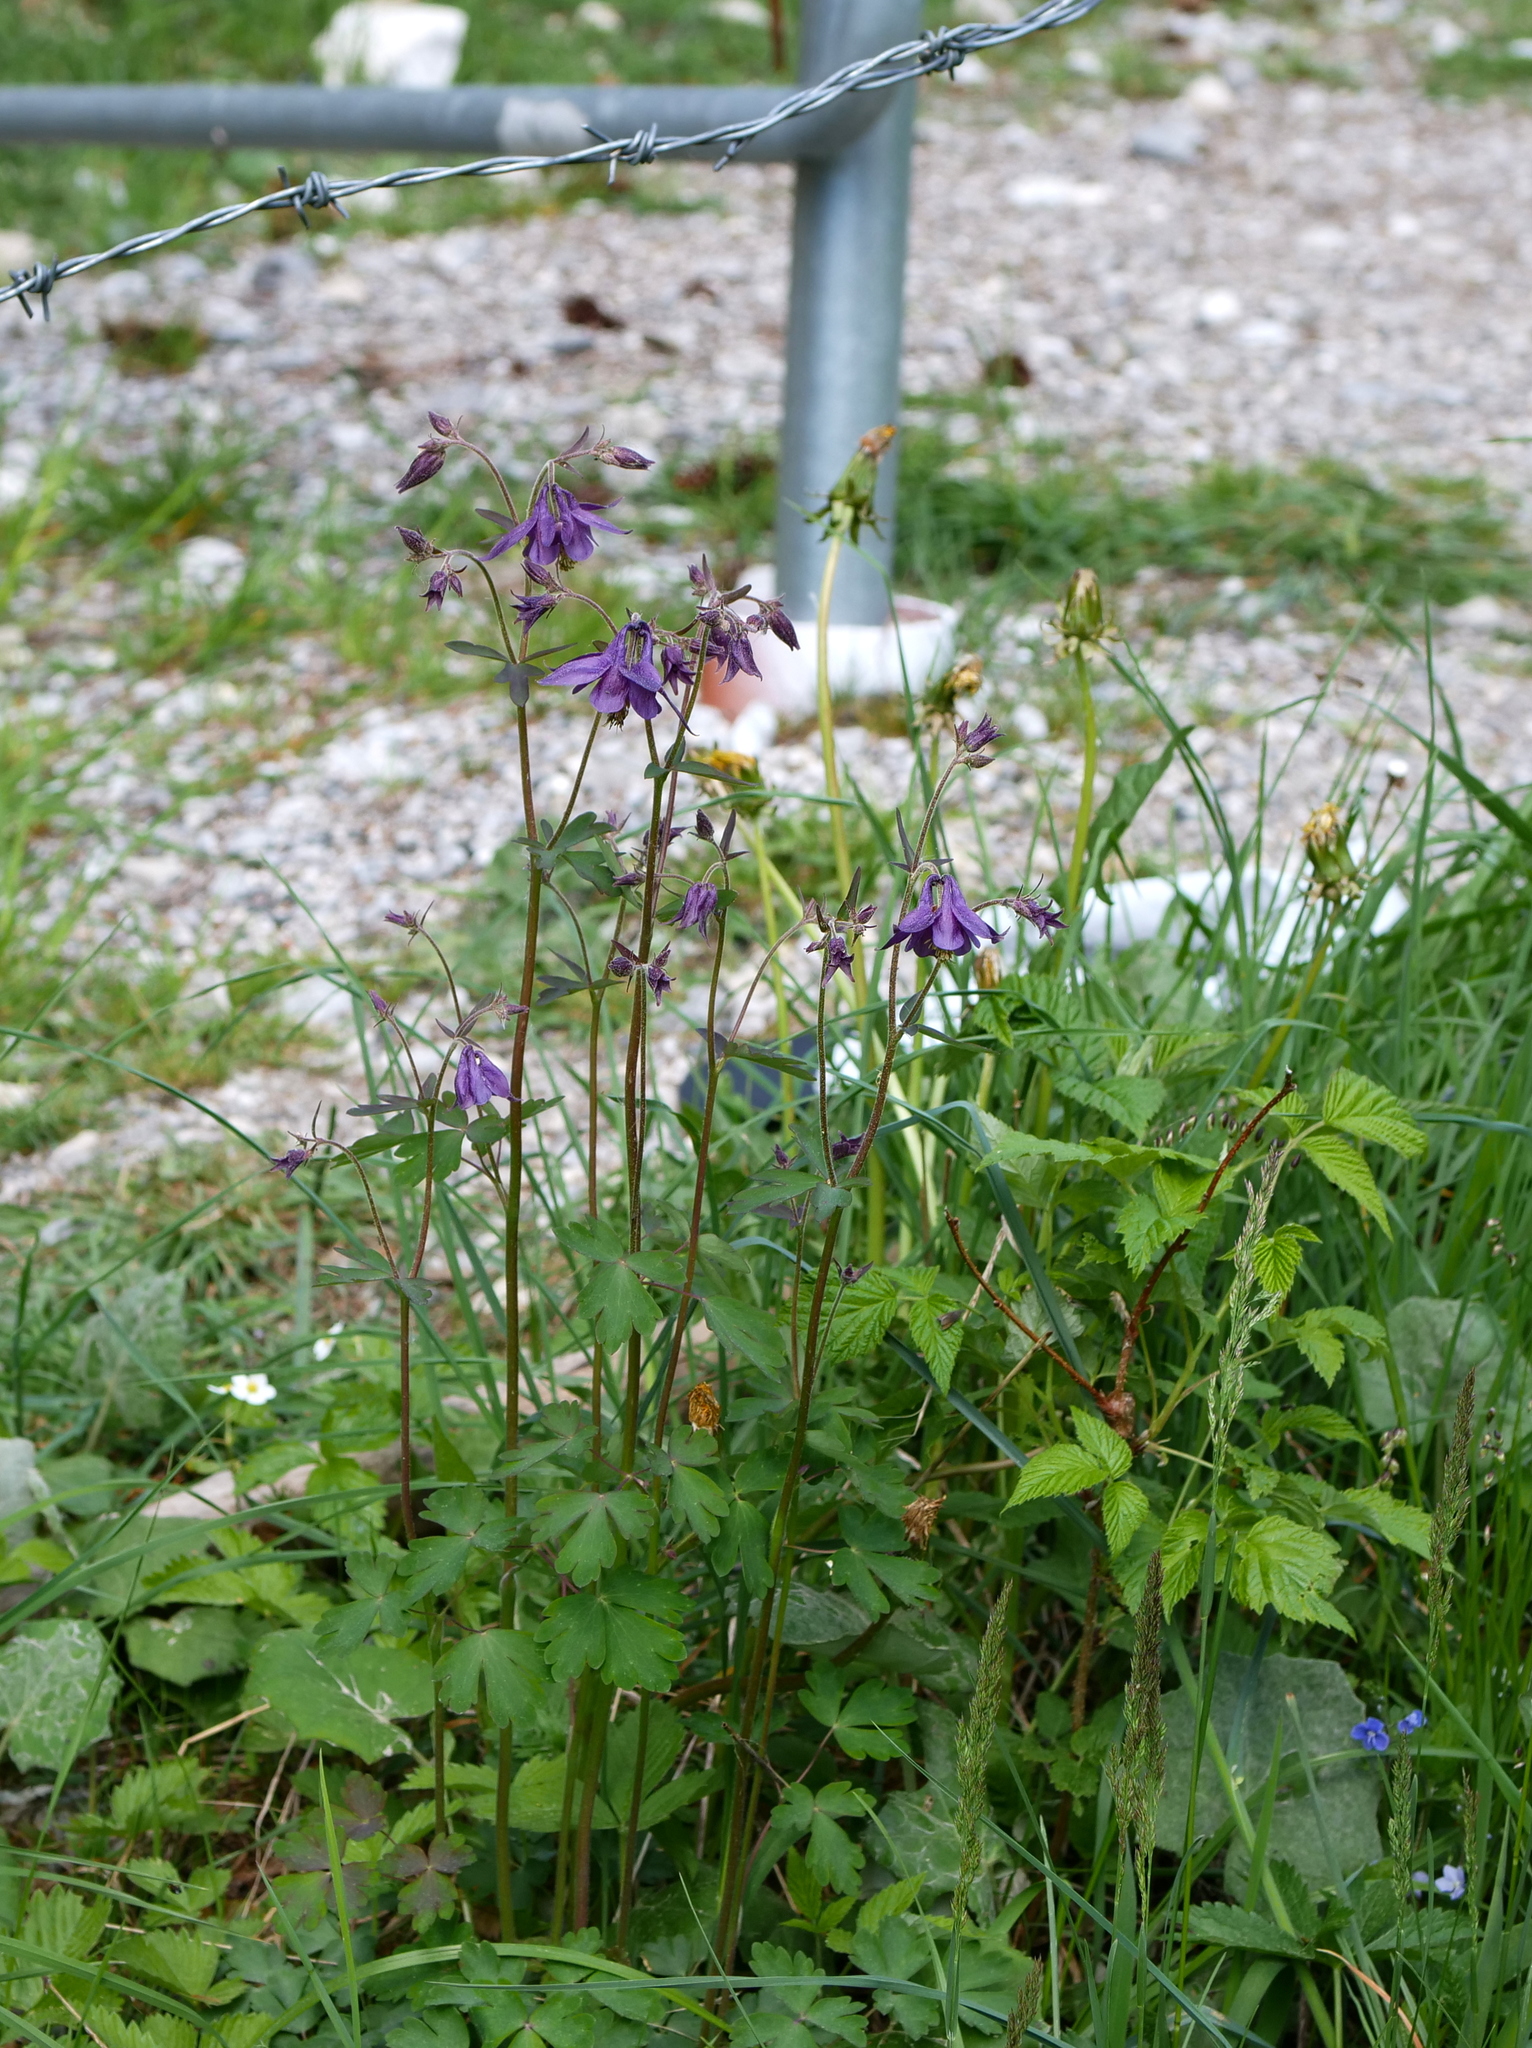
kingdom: Plantae
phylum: Tracheophyta
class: Magnoliopsida
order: Ranunculales
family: Ranunculaceae
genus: Aquilegia
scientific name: Aquilegia atrata
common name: Dark columbine
